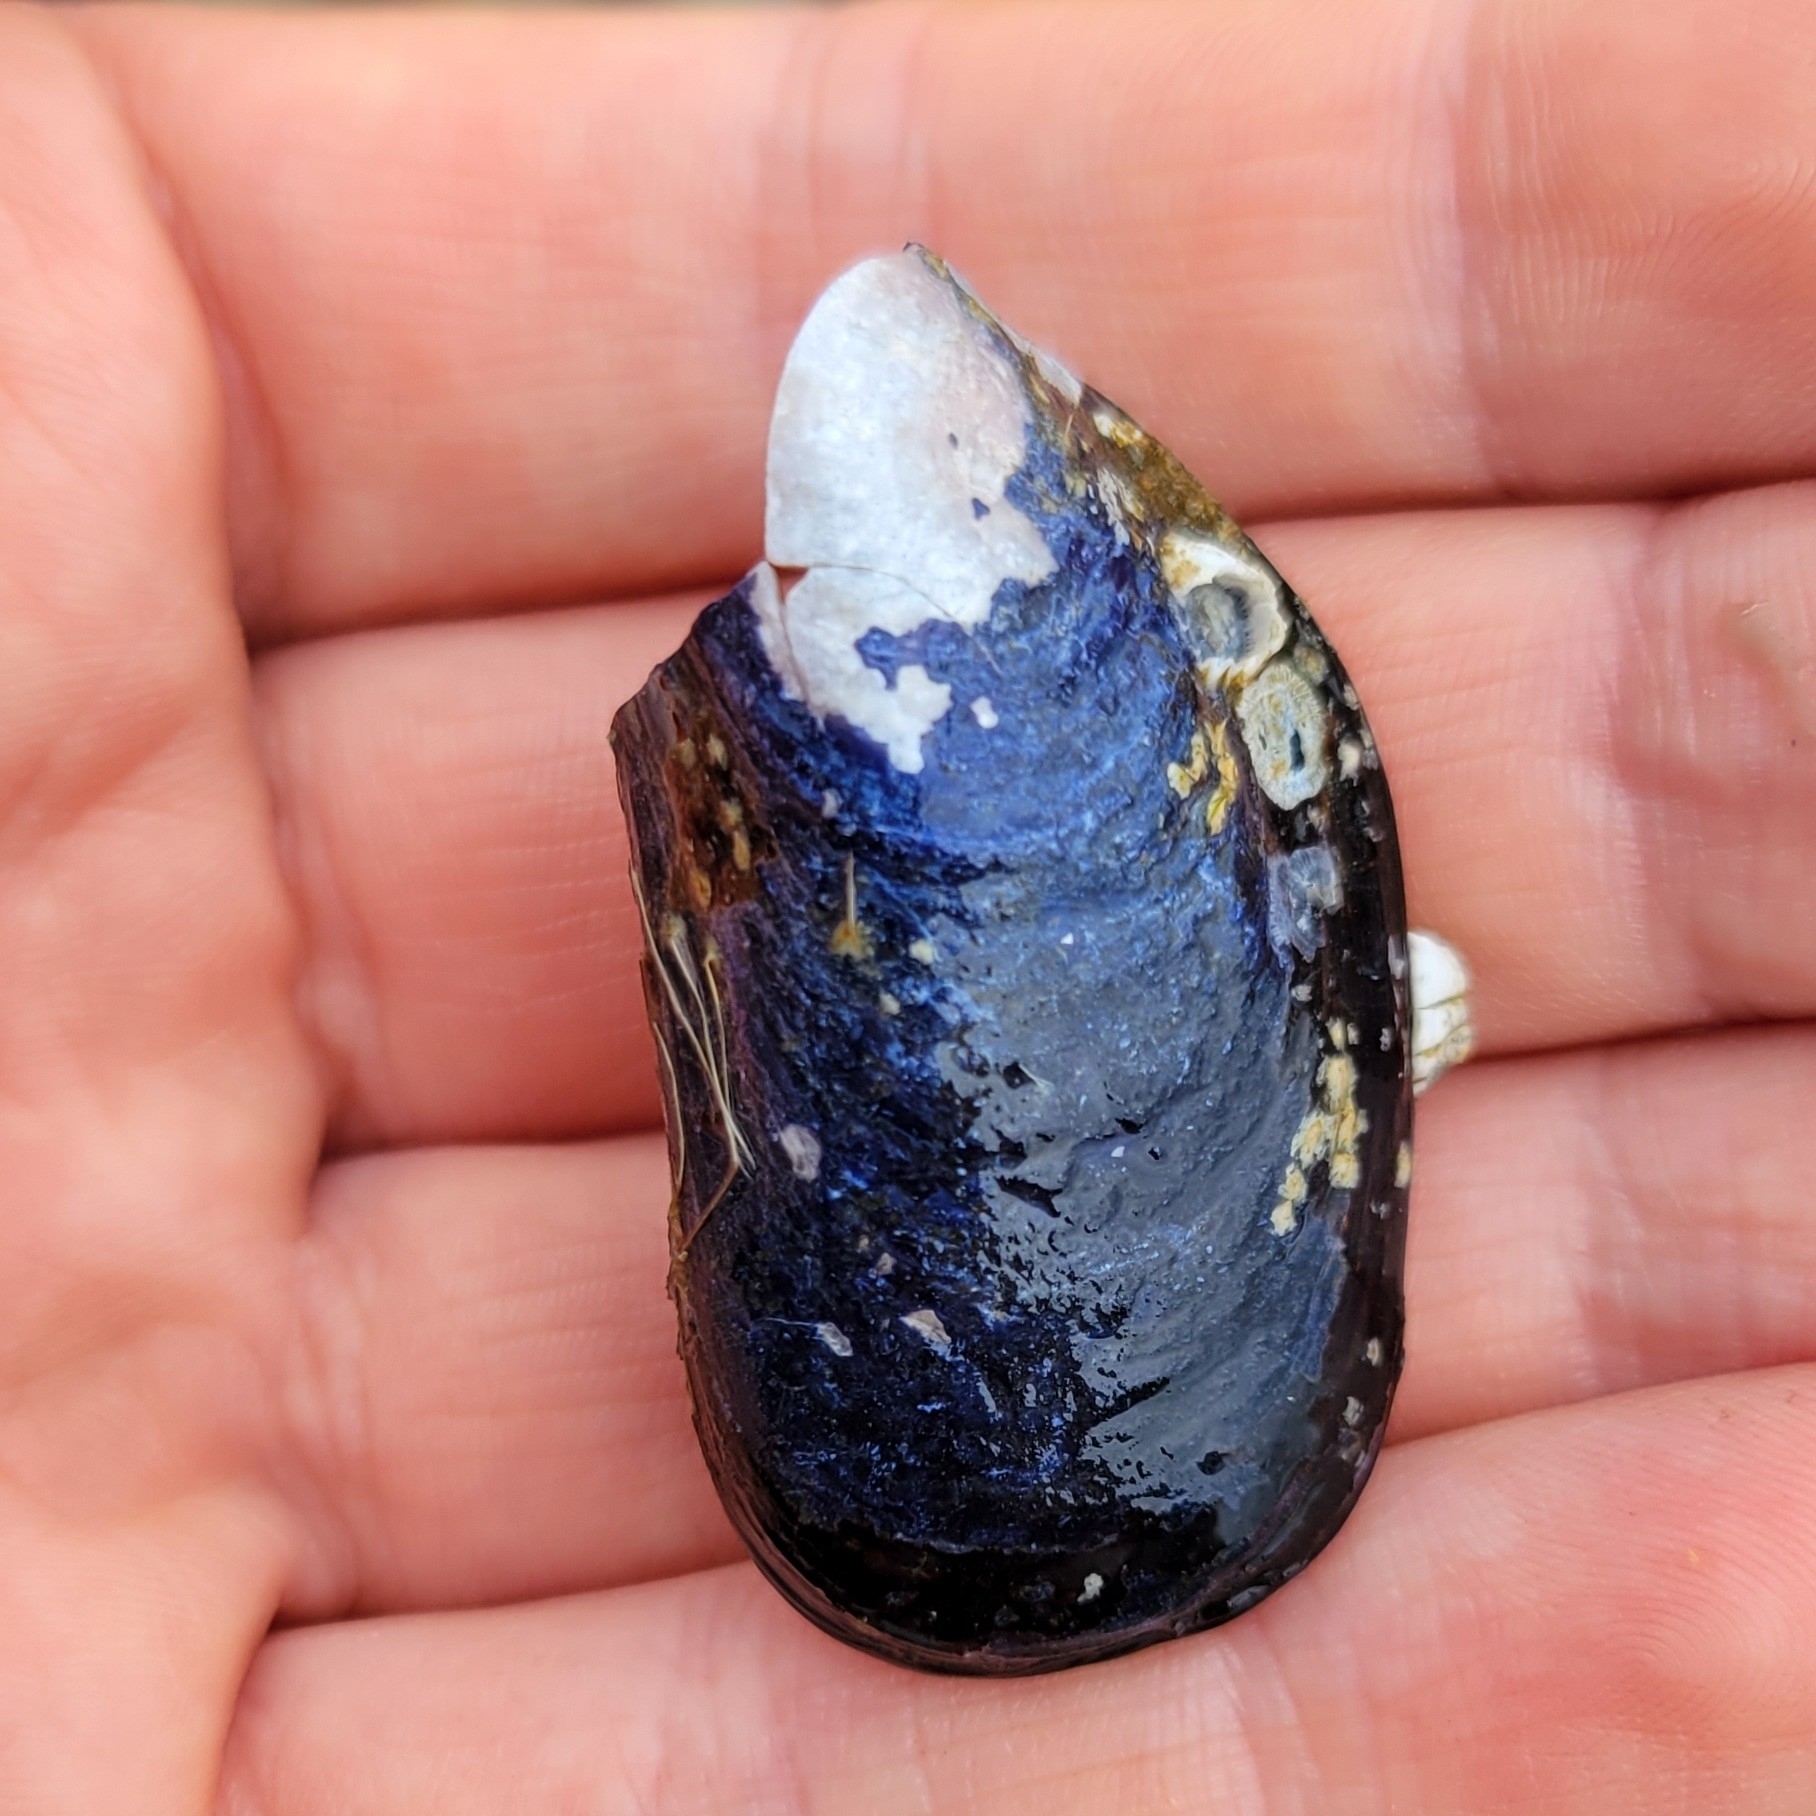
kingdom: Animalia
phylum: Mollusca
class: Bivalvia
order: Mytilida
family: Mytilidae
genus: Mytilus
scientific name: Mytilus
